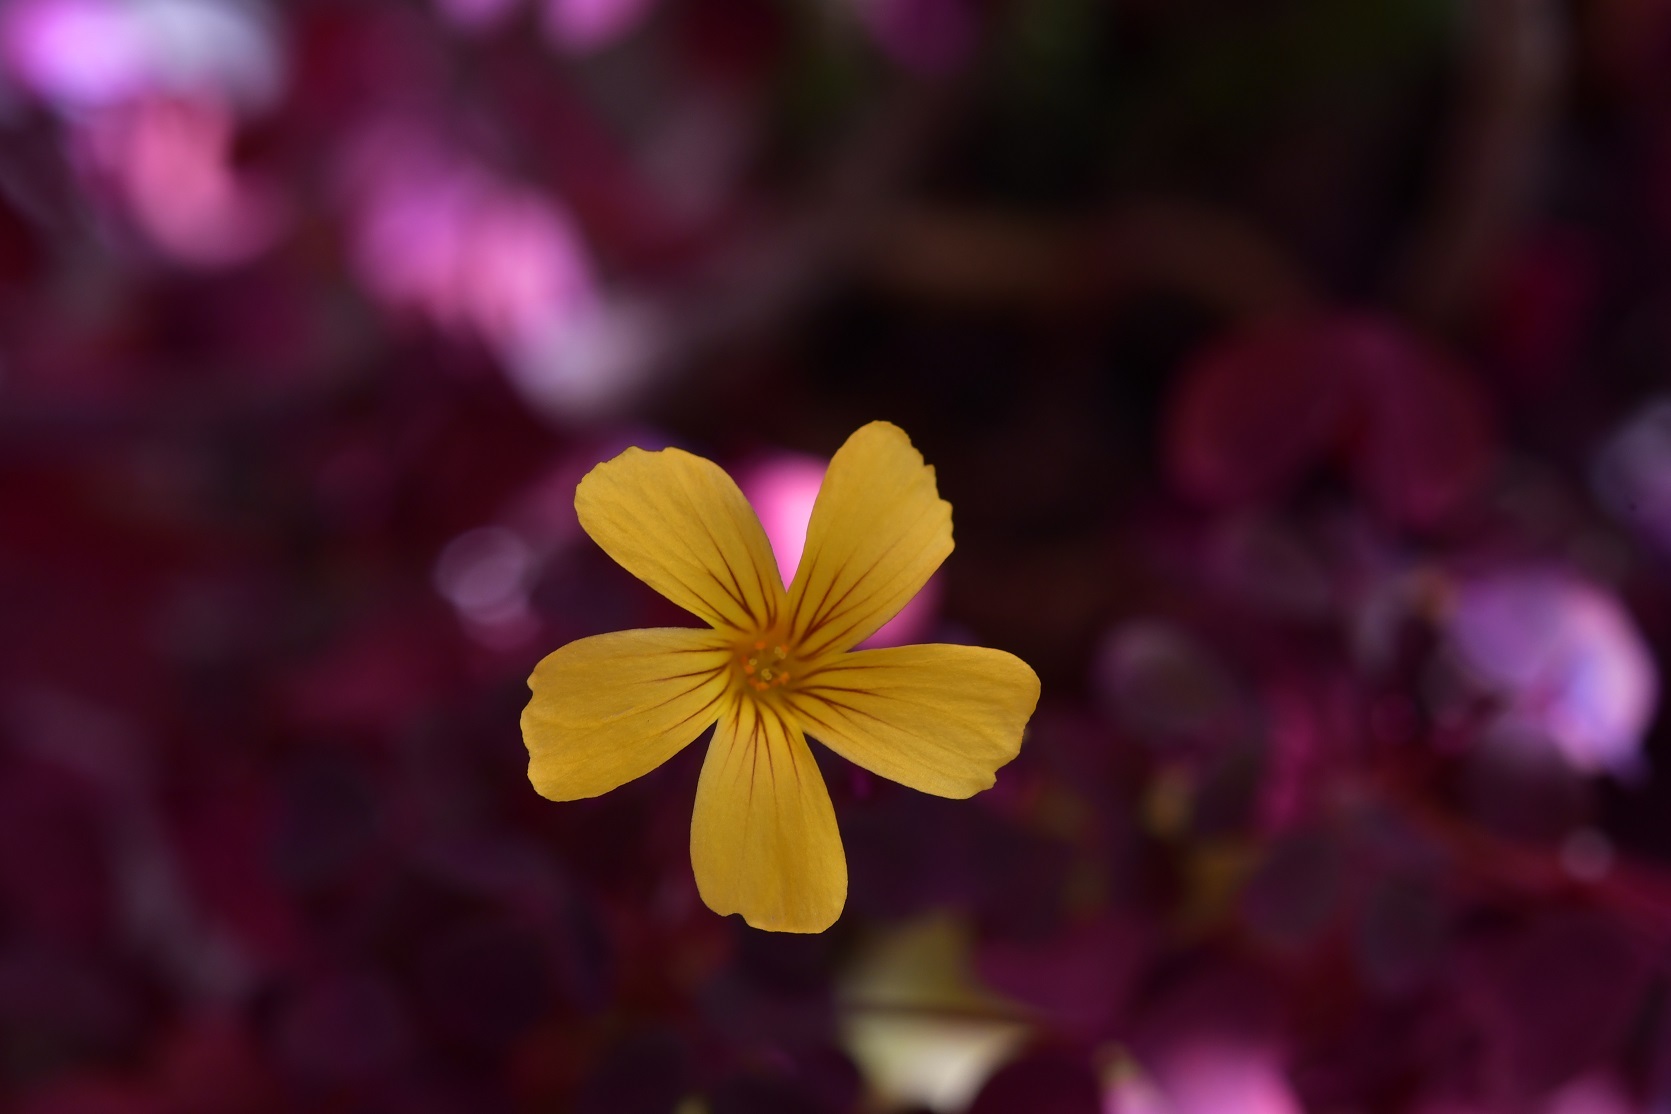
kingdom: Plantae
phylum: Tracheophyta
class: Magnoliopsida
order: Oxalidales
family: Oxalidaceae
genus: Oxalis
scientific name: Oxalis spiralis
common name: Spiral sorrel
